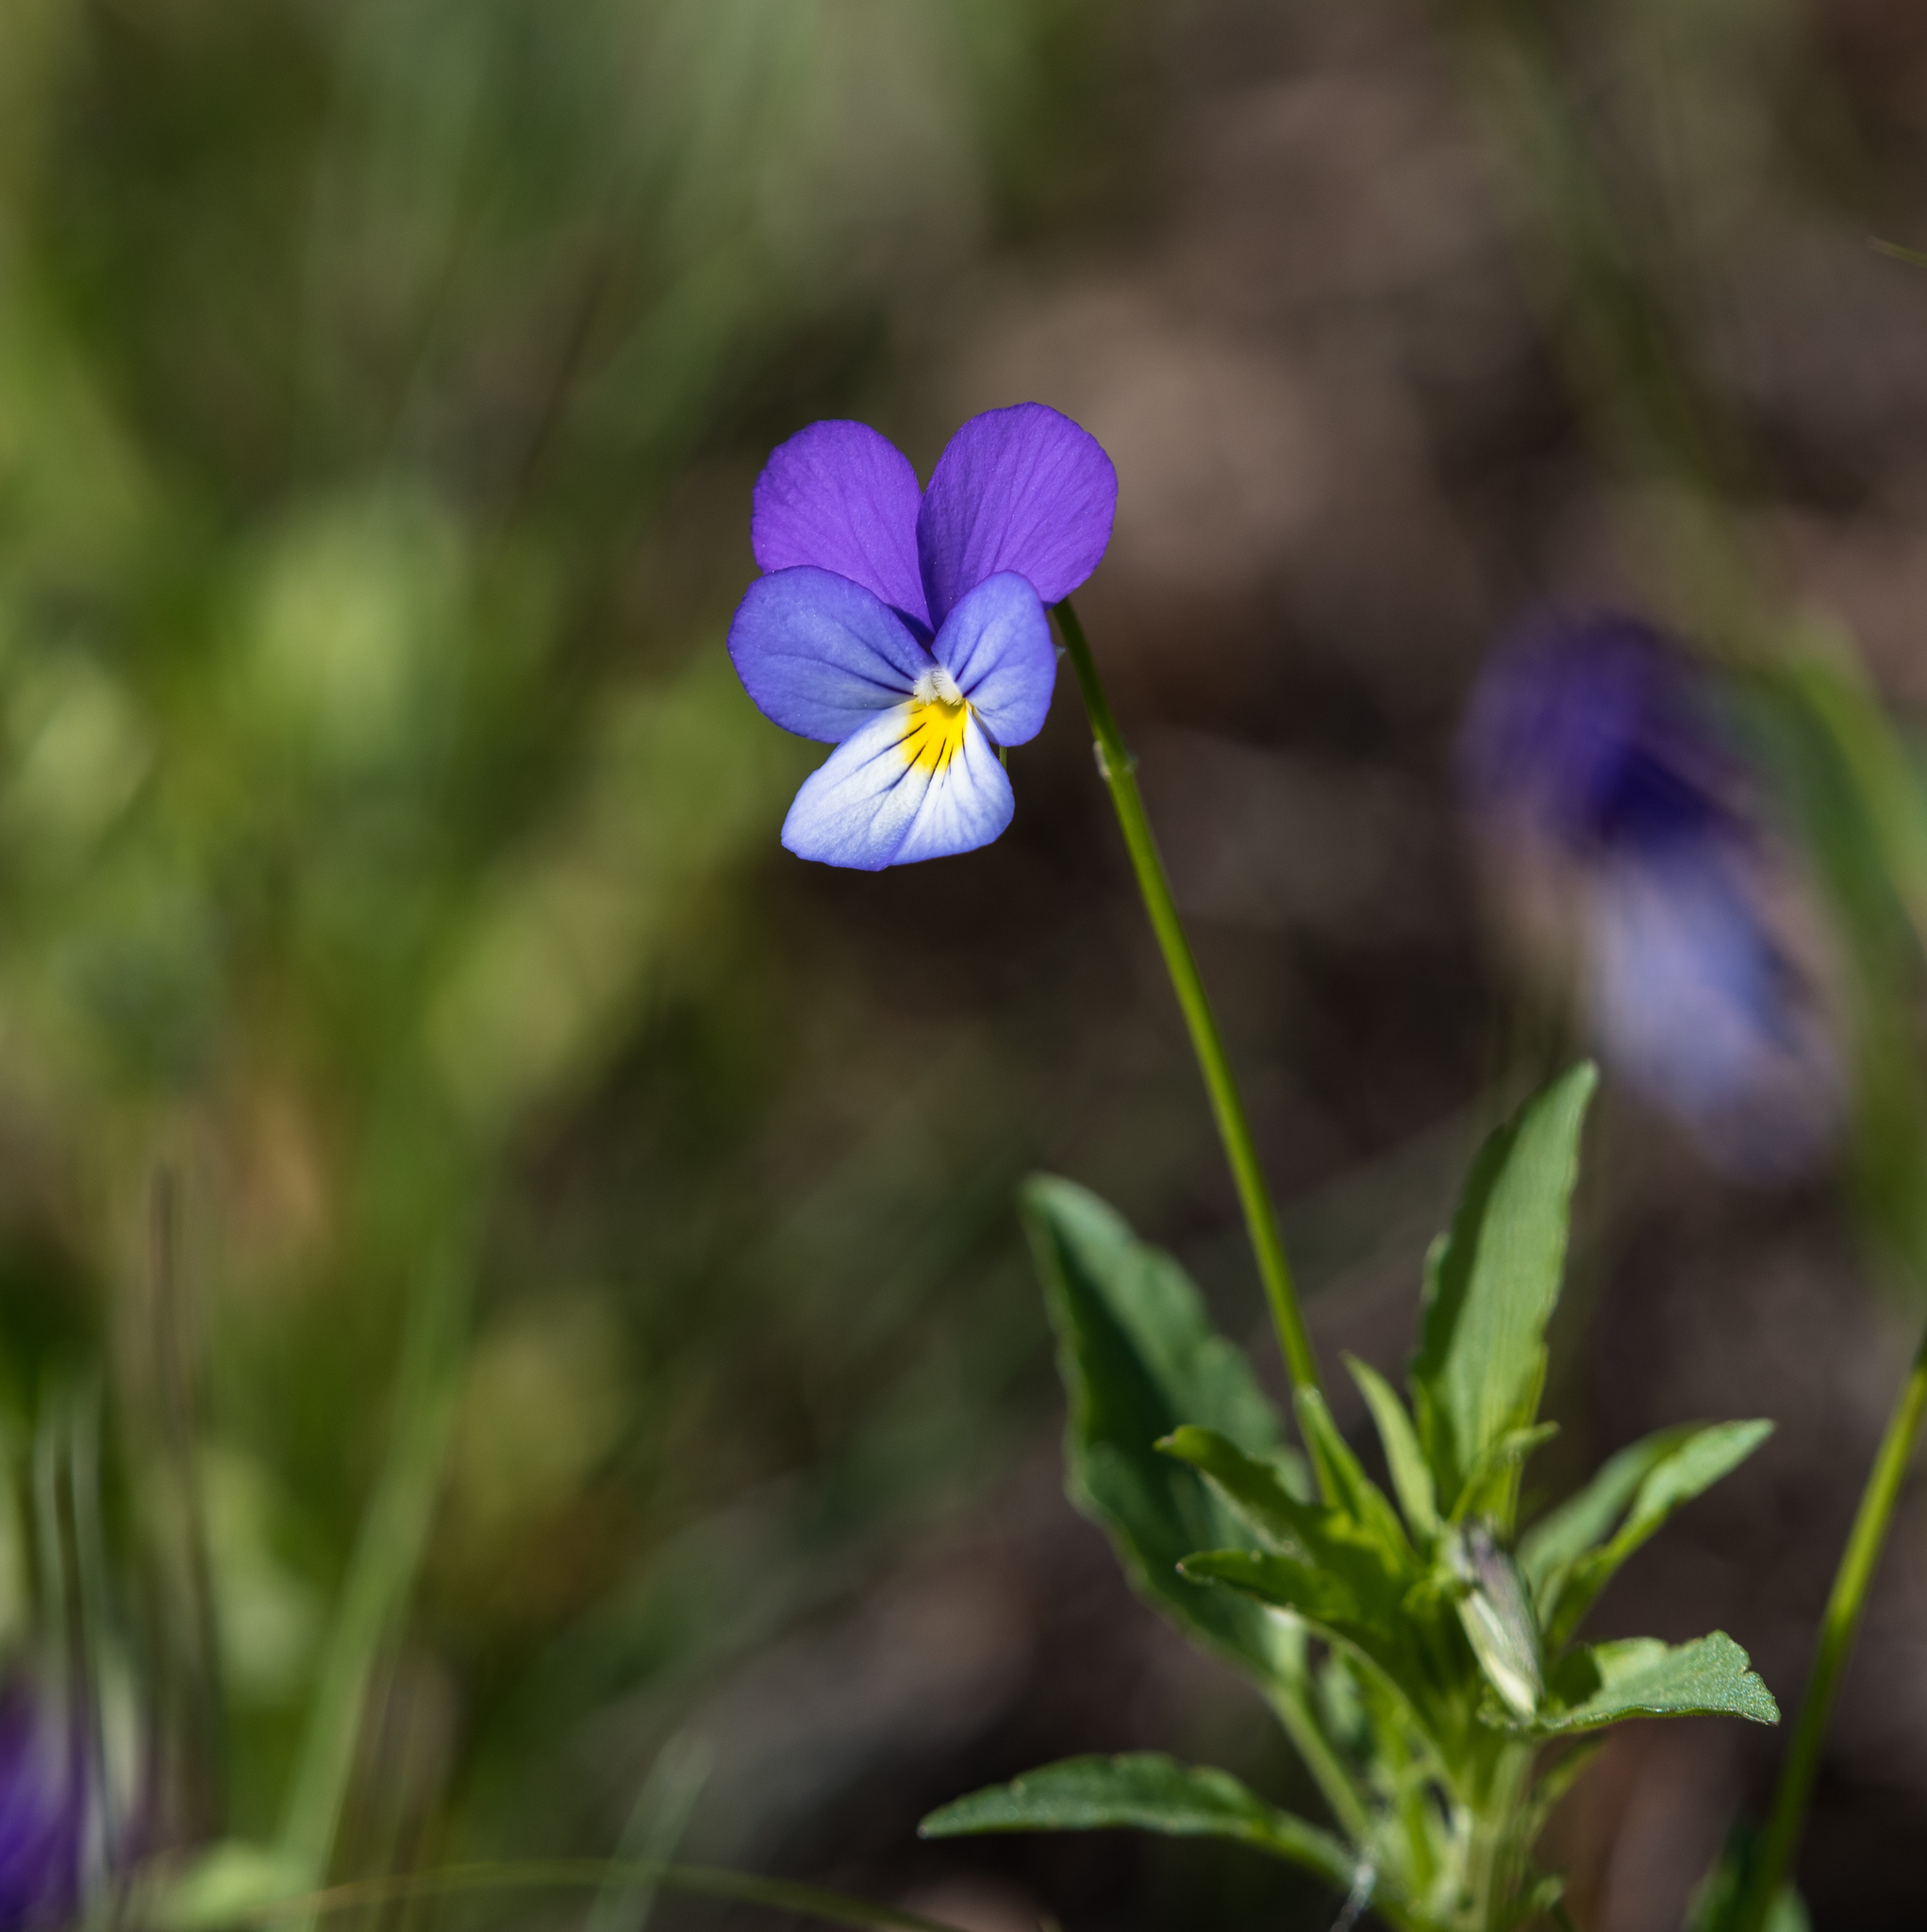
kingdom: Plantae
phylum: Tracheophyta
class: Magnoliopsida
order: Malpighiales
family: Violaceae
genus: Viola
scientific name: Viola tricolor
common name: Pansy
